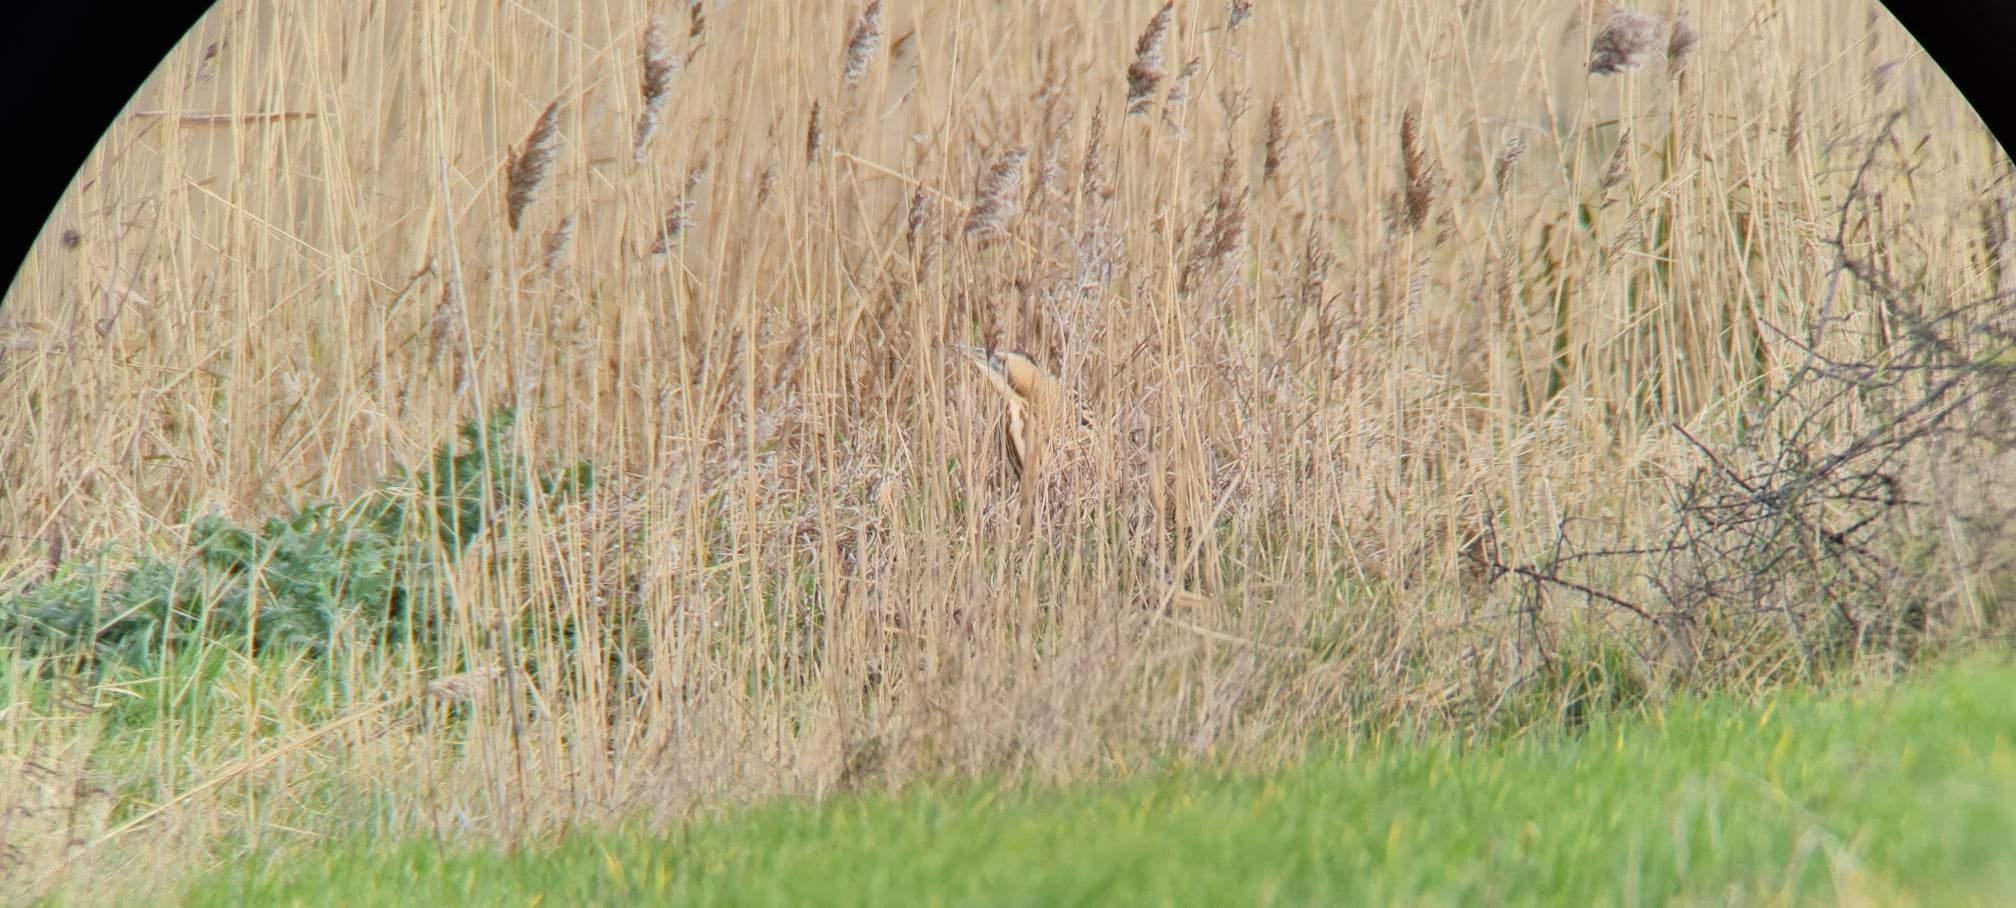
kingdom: Animalia
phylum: Chordata
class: Aves
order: Pelecaniformes
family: Ardeidae
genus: Botaurus
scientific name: Botaurus stellaris
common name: Eurasian bittern
